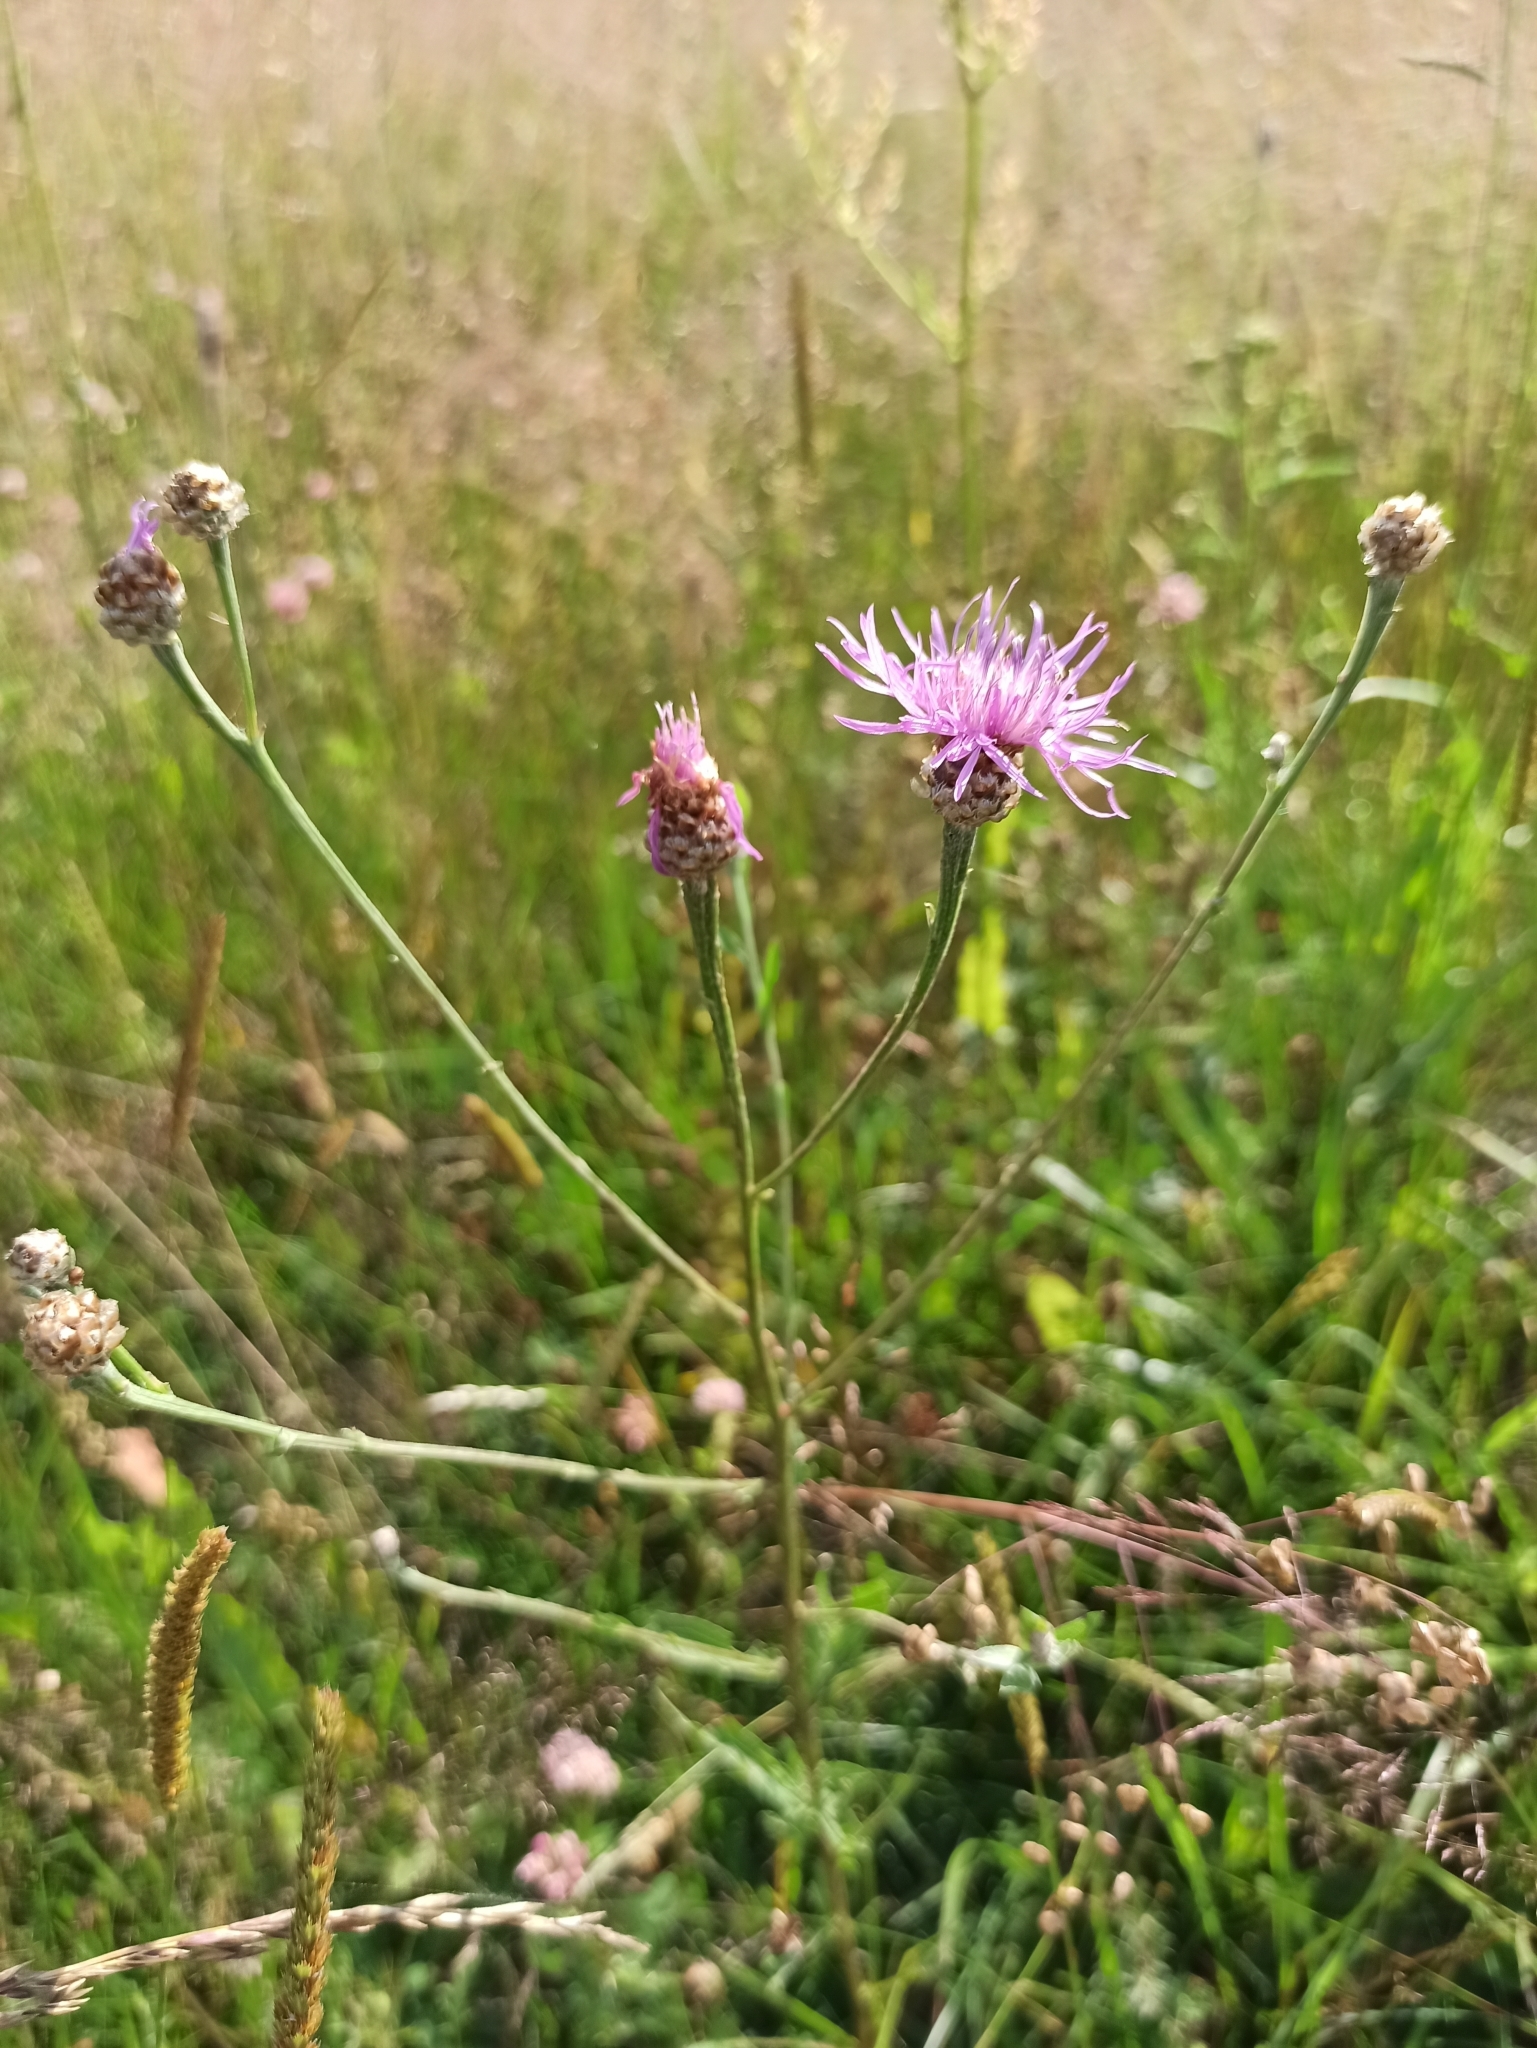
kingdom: Plantae
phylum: Tracheophyta
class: Magnoliopsida
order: Asterales
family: Asteraceae
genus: Centaurea
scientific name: Centaurea jacea
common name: Brown knapweed
